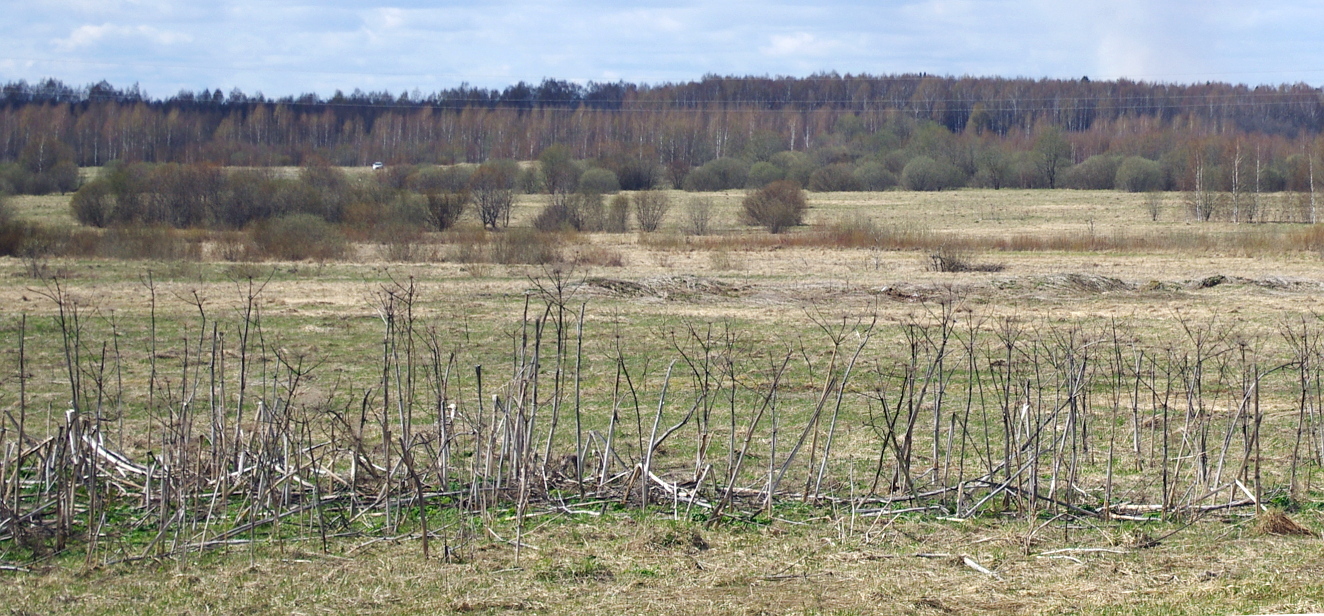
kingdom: Plantae
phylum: Tracheophyta
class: Magnoliopsida
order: Apiales
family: Apiaceae
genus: Heracleum
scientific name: Heracleum sosnowskyi
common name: Sosnowsky's hogweed
